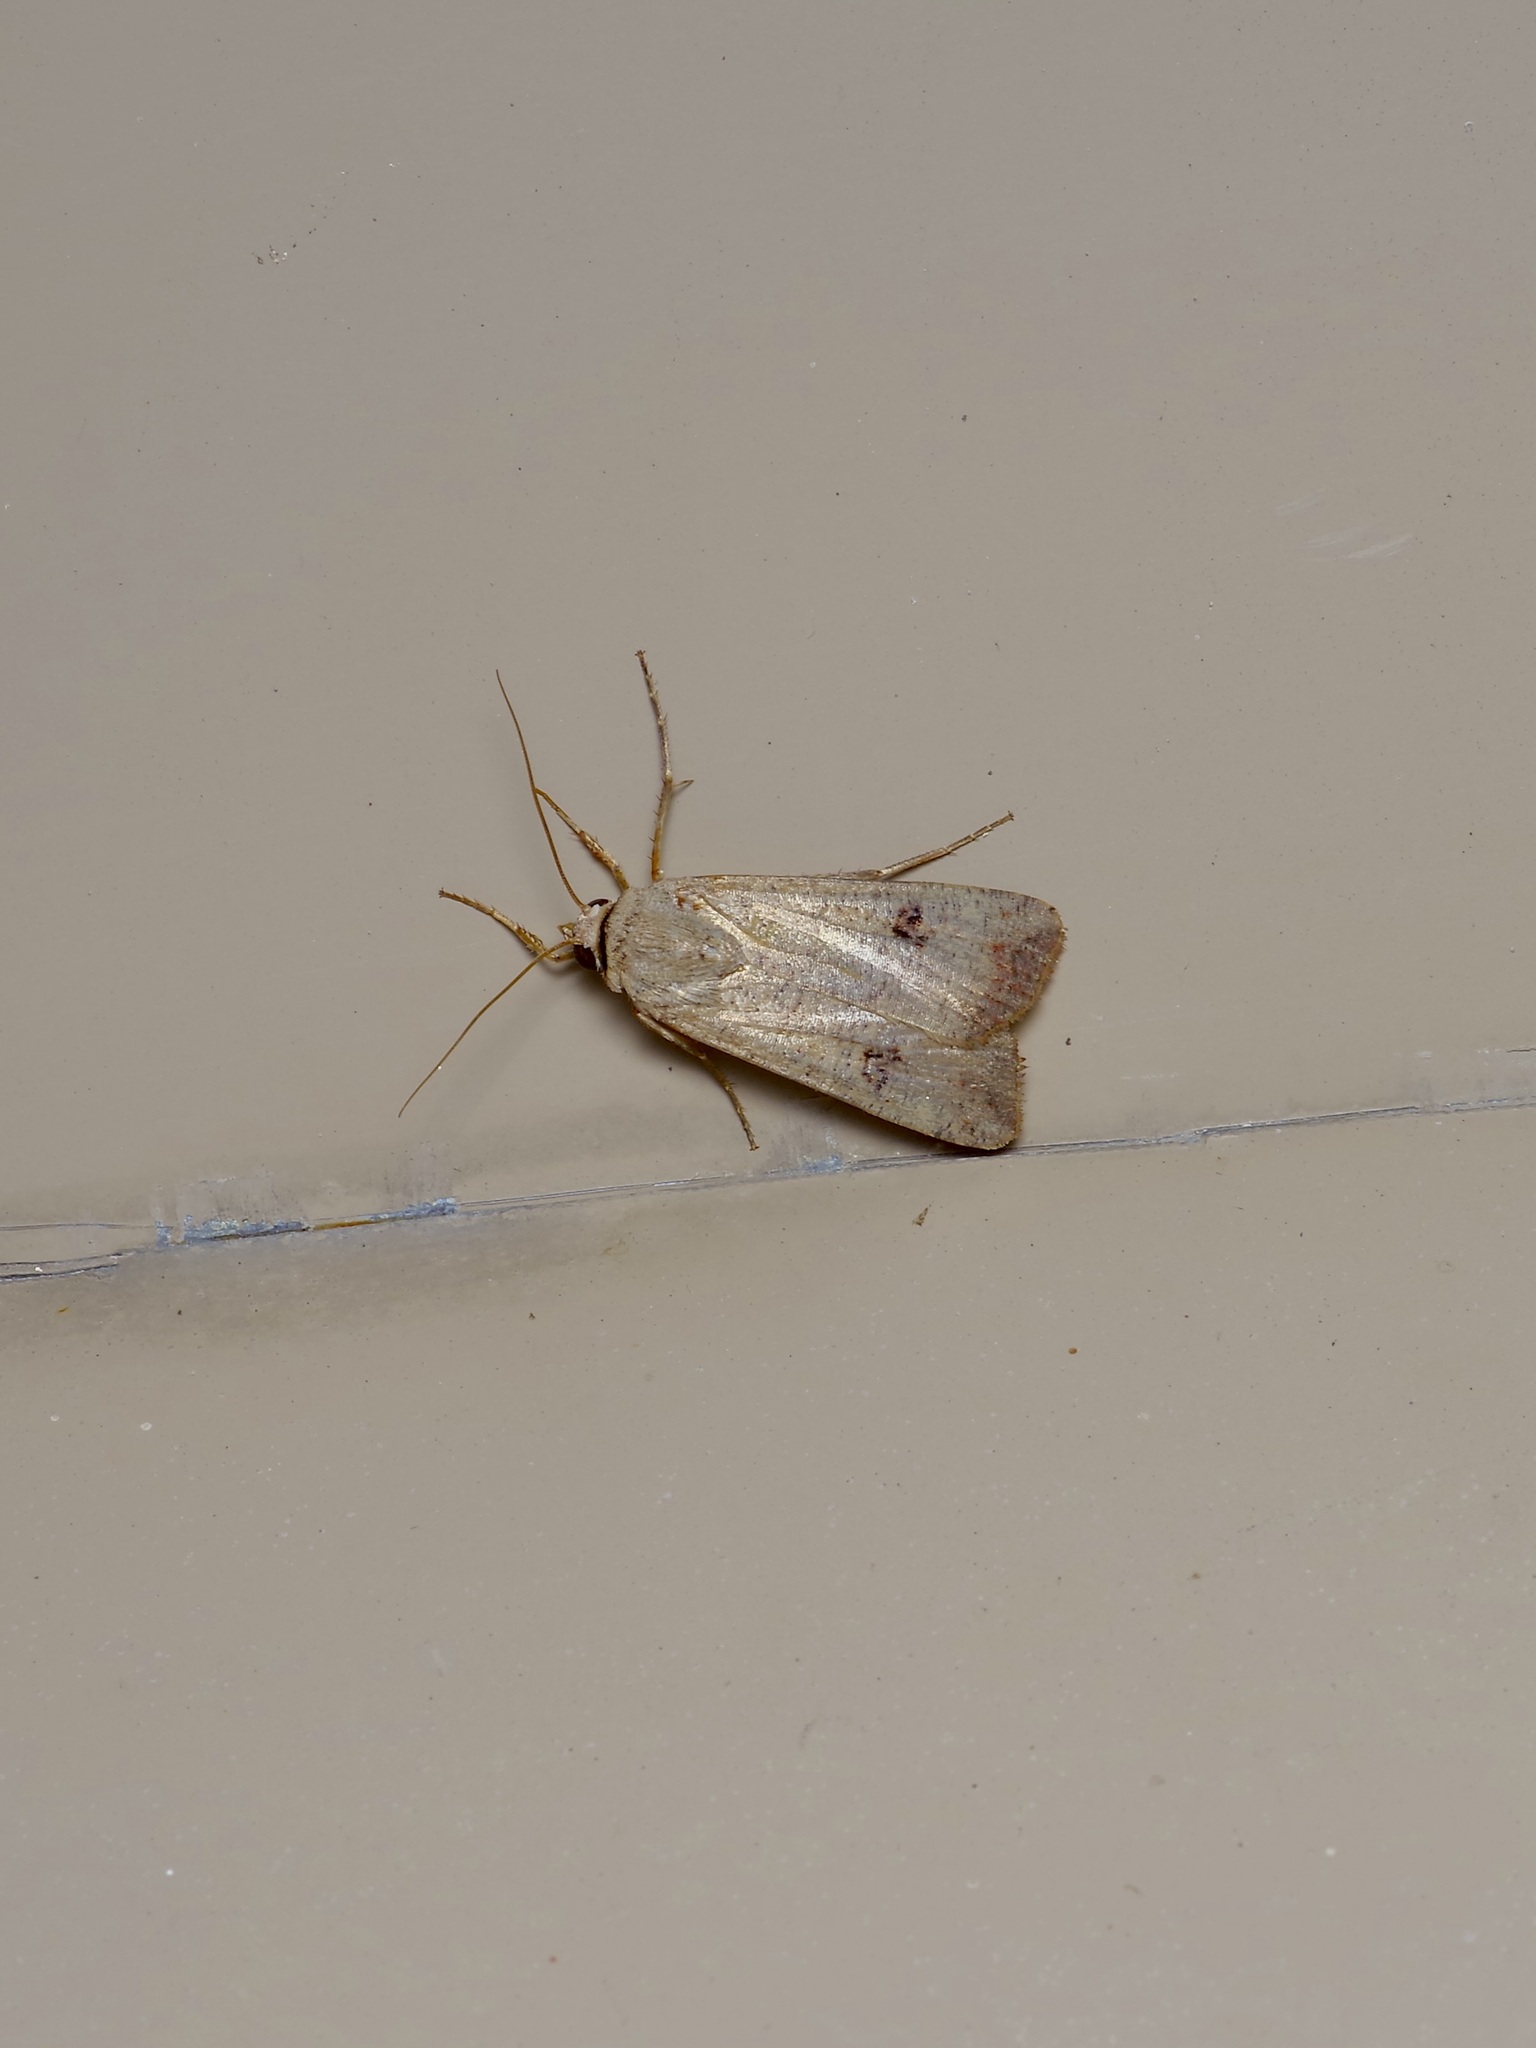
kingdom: Animalia
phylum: Arthropoda
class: Insecta
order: Lepidoptera
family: Noctuidae
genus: Anicla
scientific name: Anicla infecta
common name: Green cutworm
